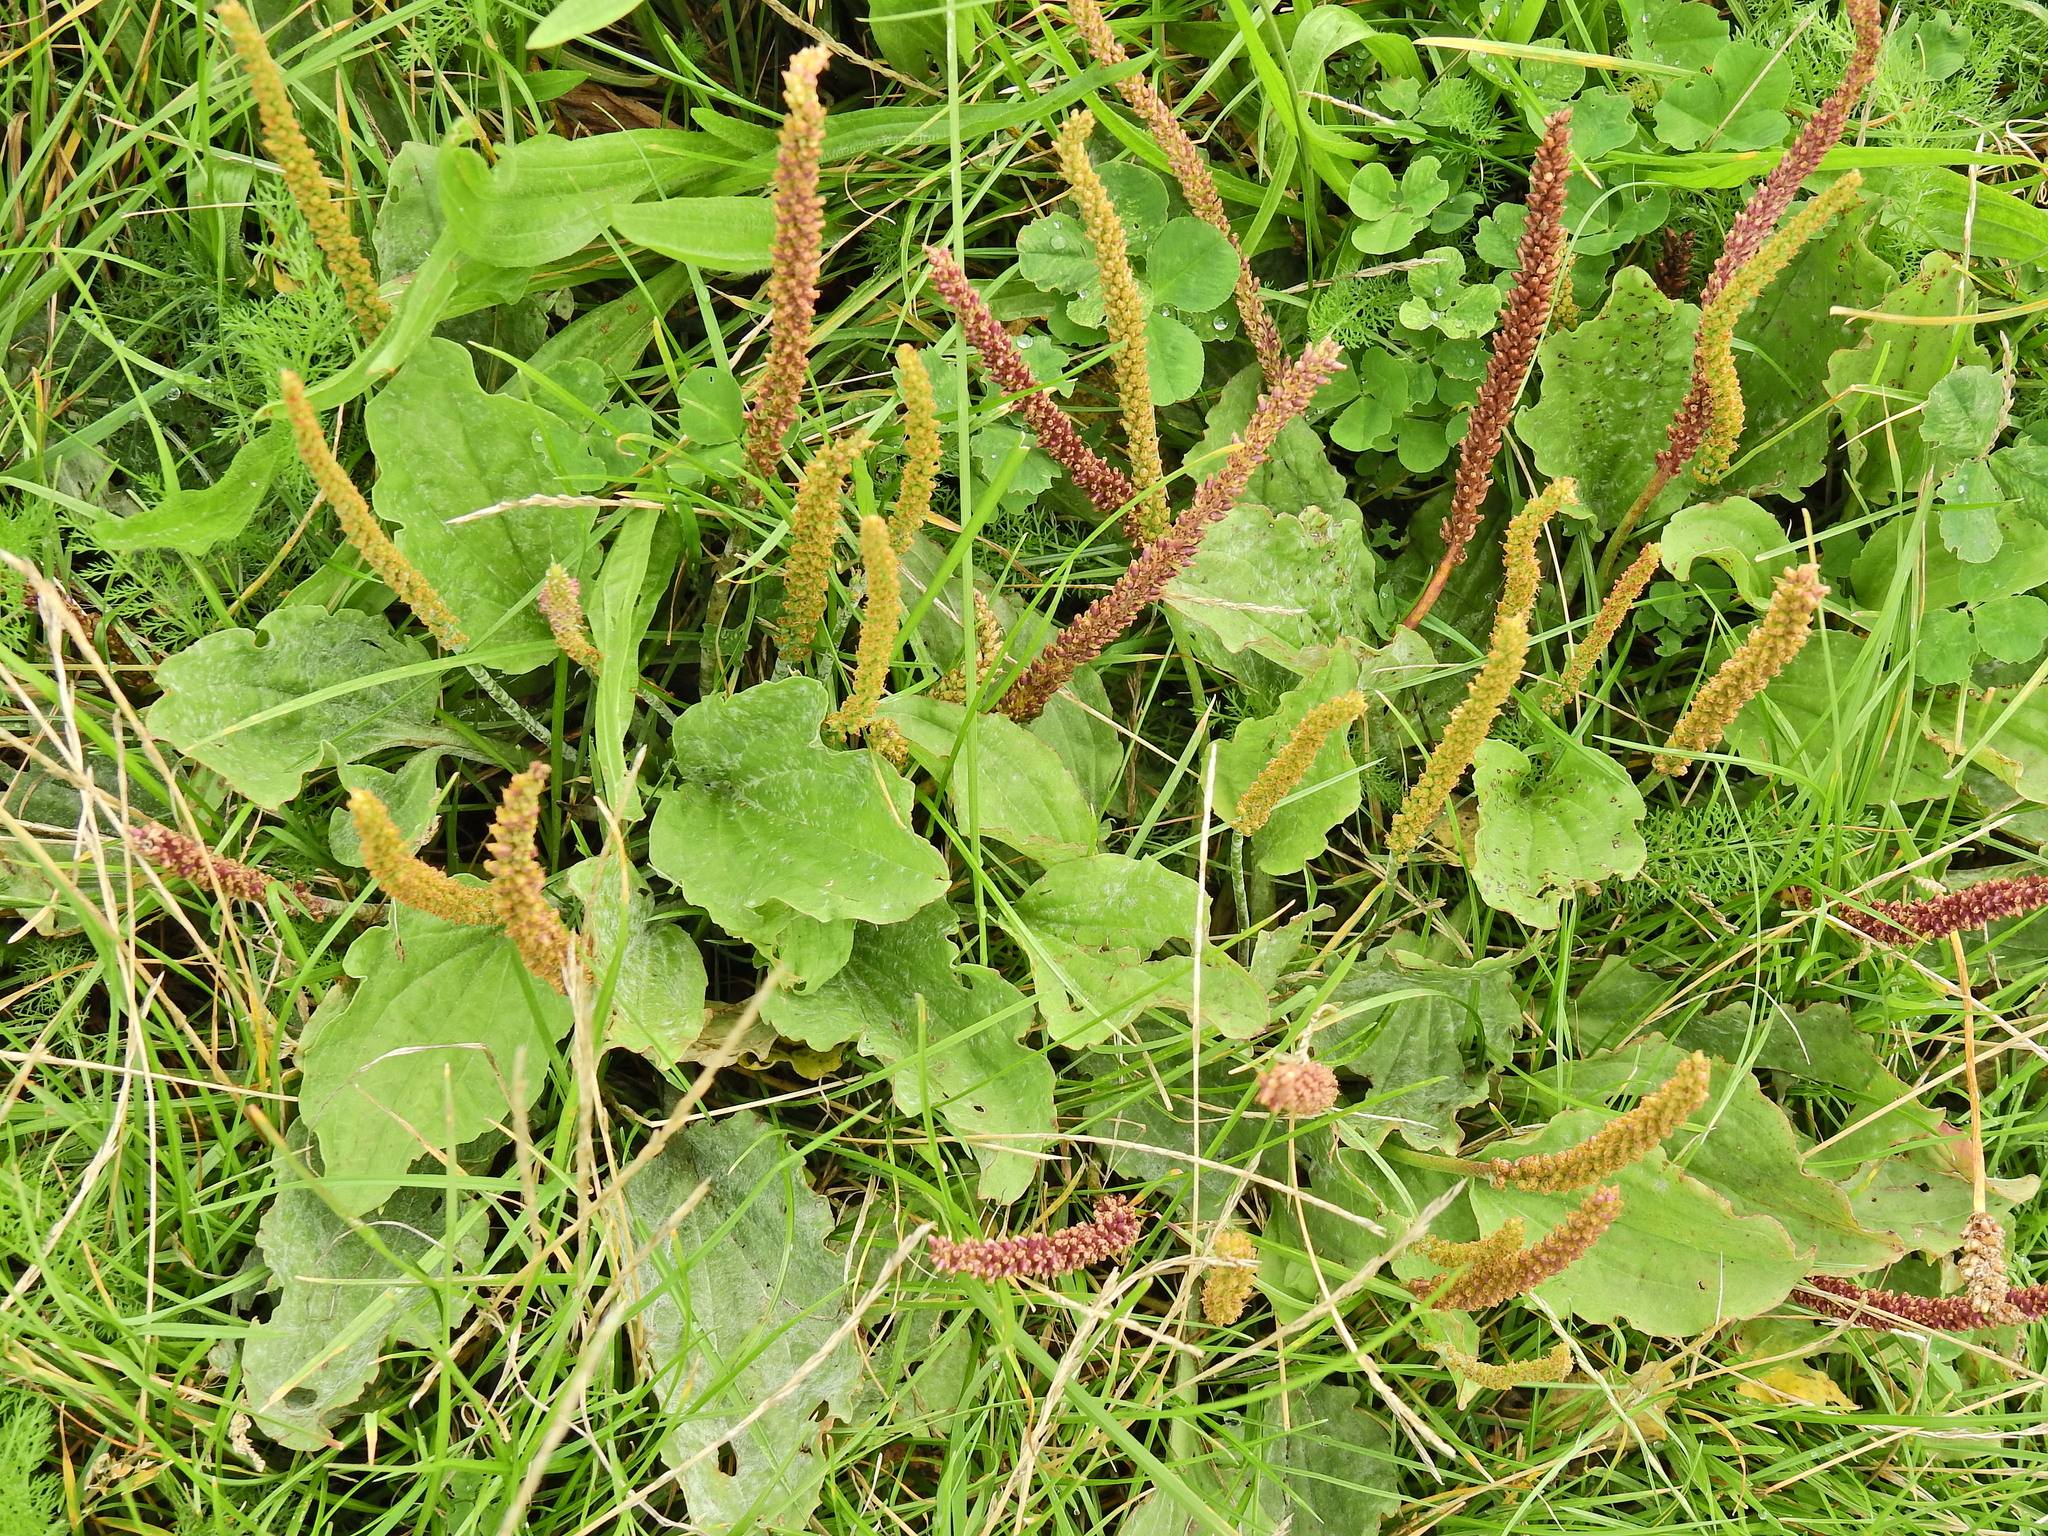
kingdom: Plantae
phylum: Tracheophyta
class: Magnoliopsida
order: Lamiales
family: Plantaginaceae
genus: Plantago
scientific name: Plantago major
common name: Common plantain
